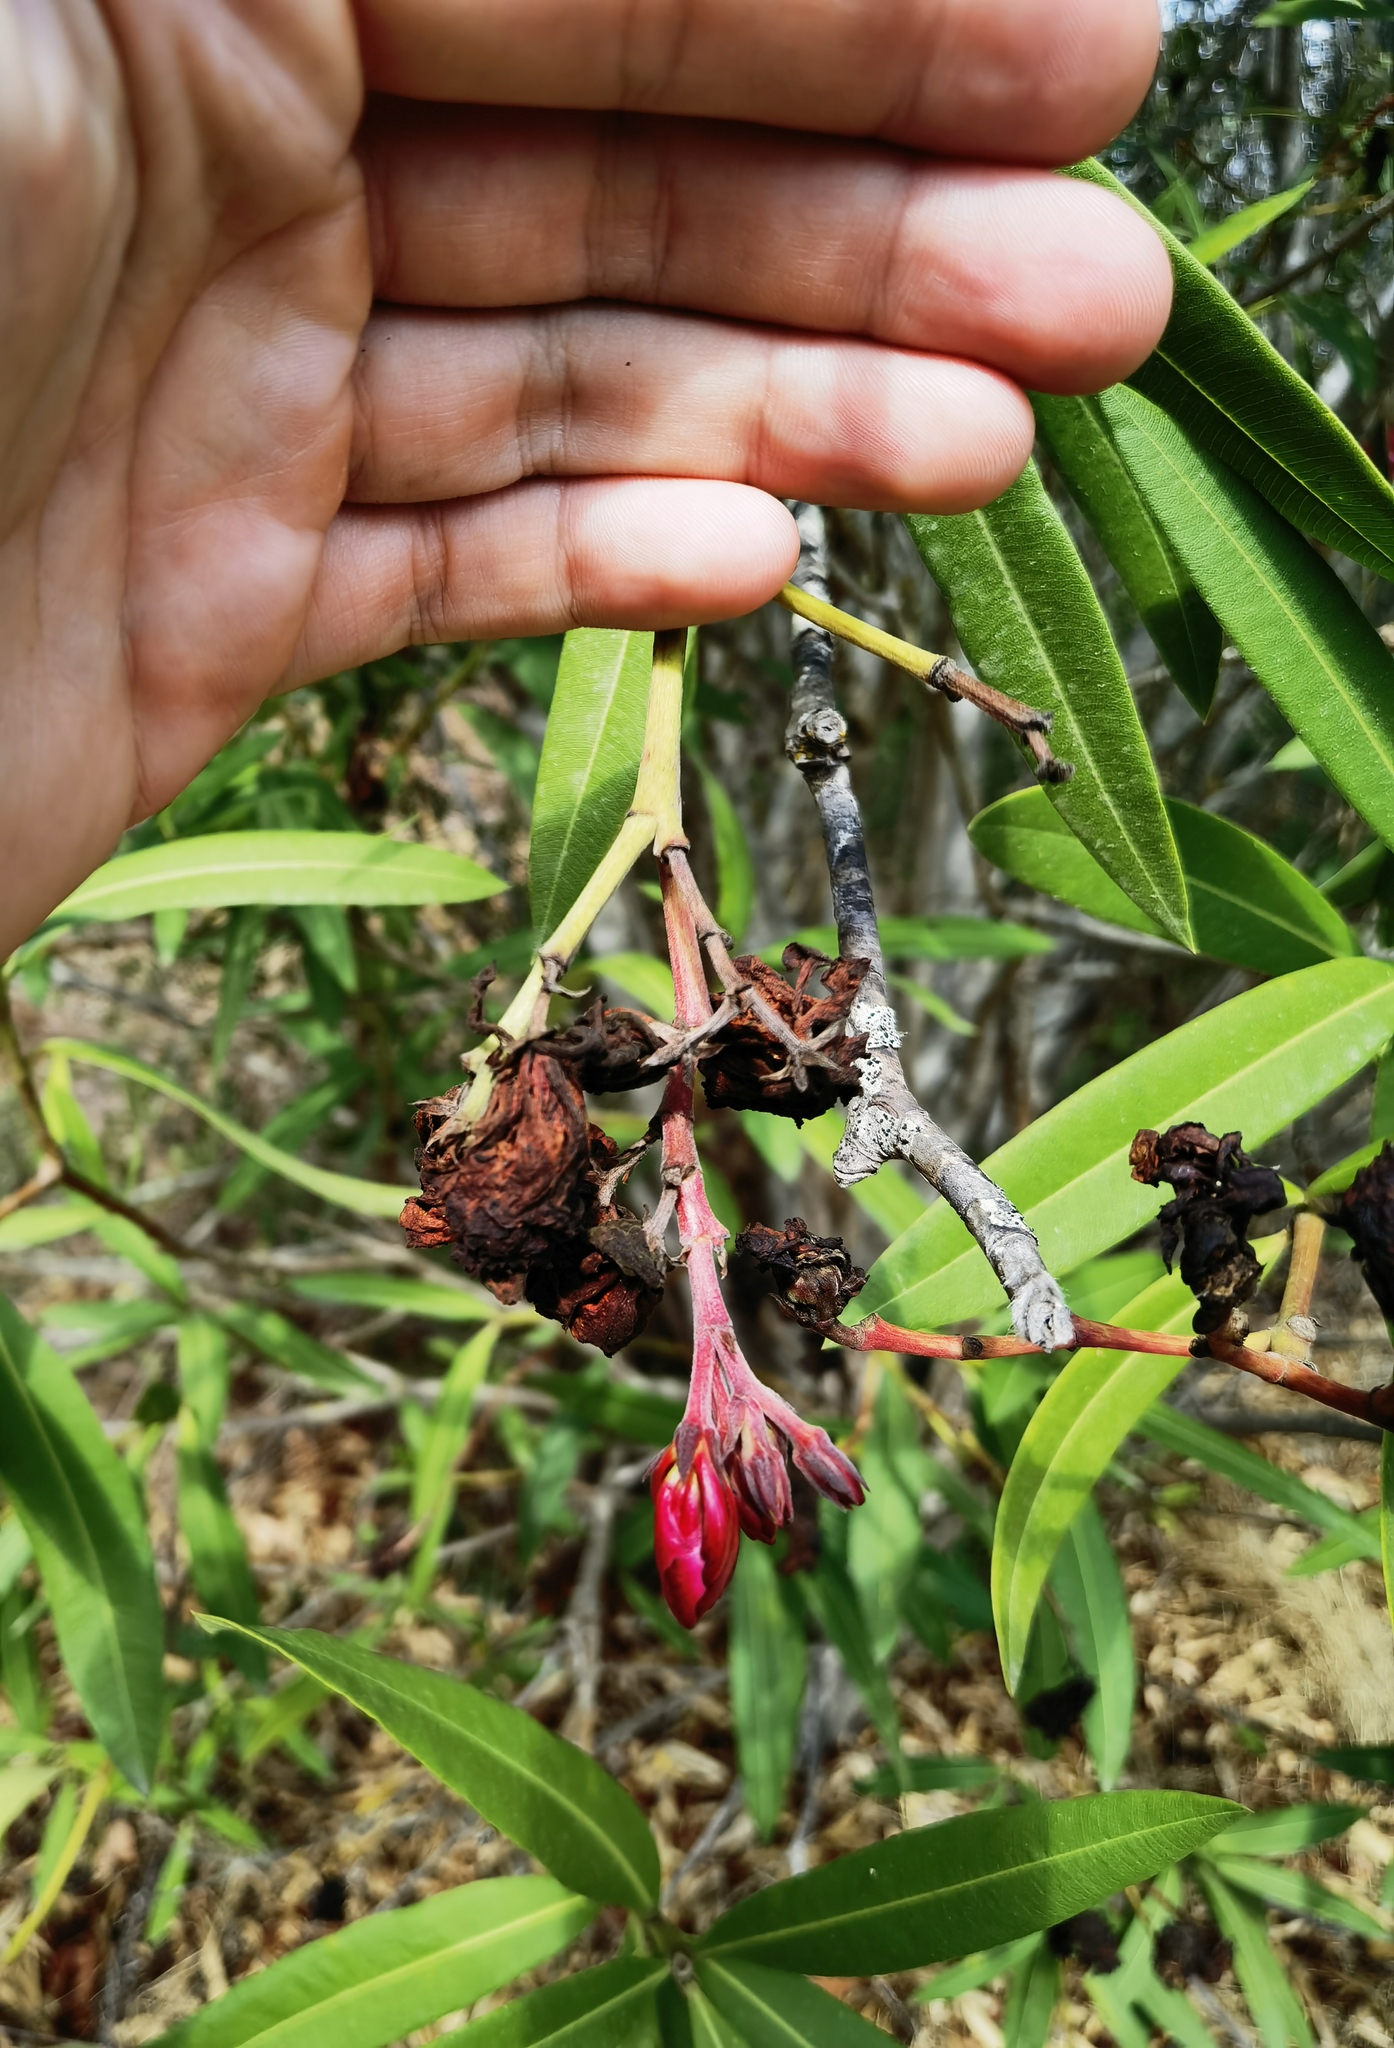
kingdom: Plantae
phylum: Tracheophyta
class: Magnoliopsida
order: Gentianales
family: Apocynaceae
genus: Nerium
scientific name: Nerium oleander
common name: Oleander
